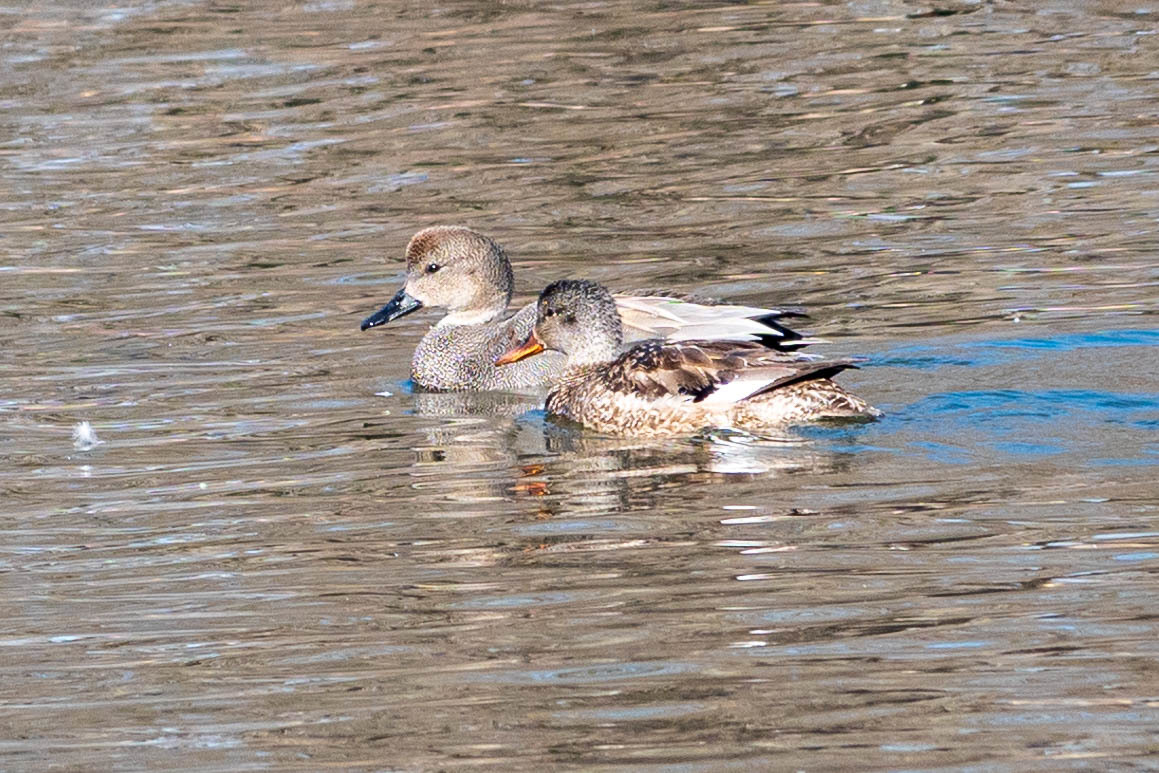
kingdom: Animalia
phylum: Chordata
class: Aves
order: Anseriformes
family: Anatidae
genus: Mareca
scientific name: Mareca strepera
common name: Gadwall
